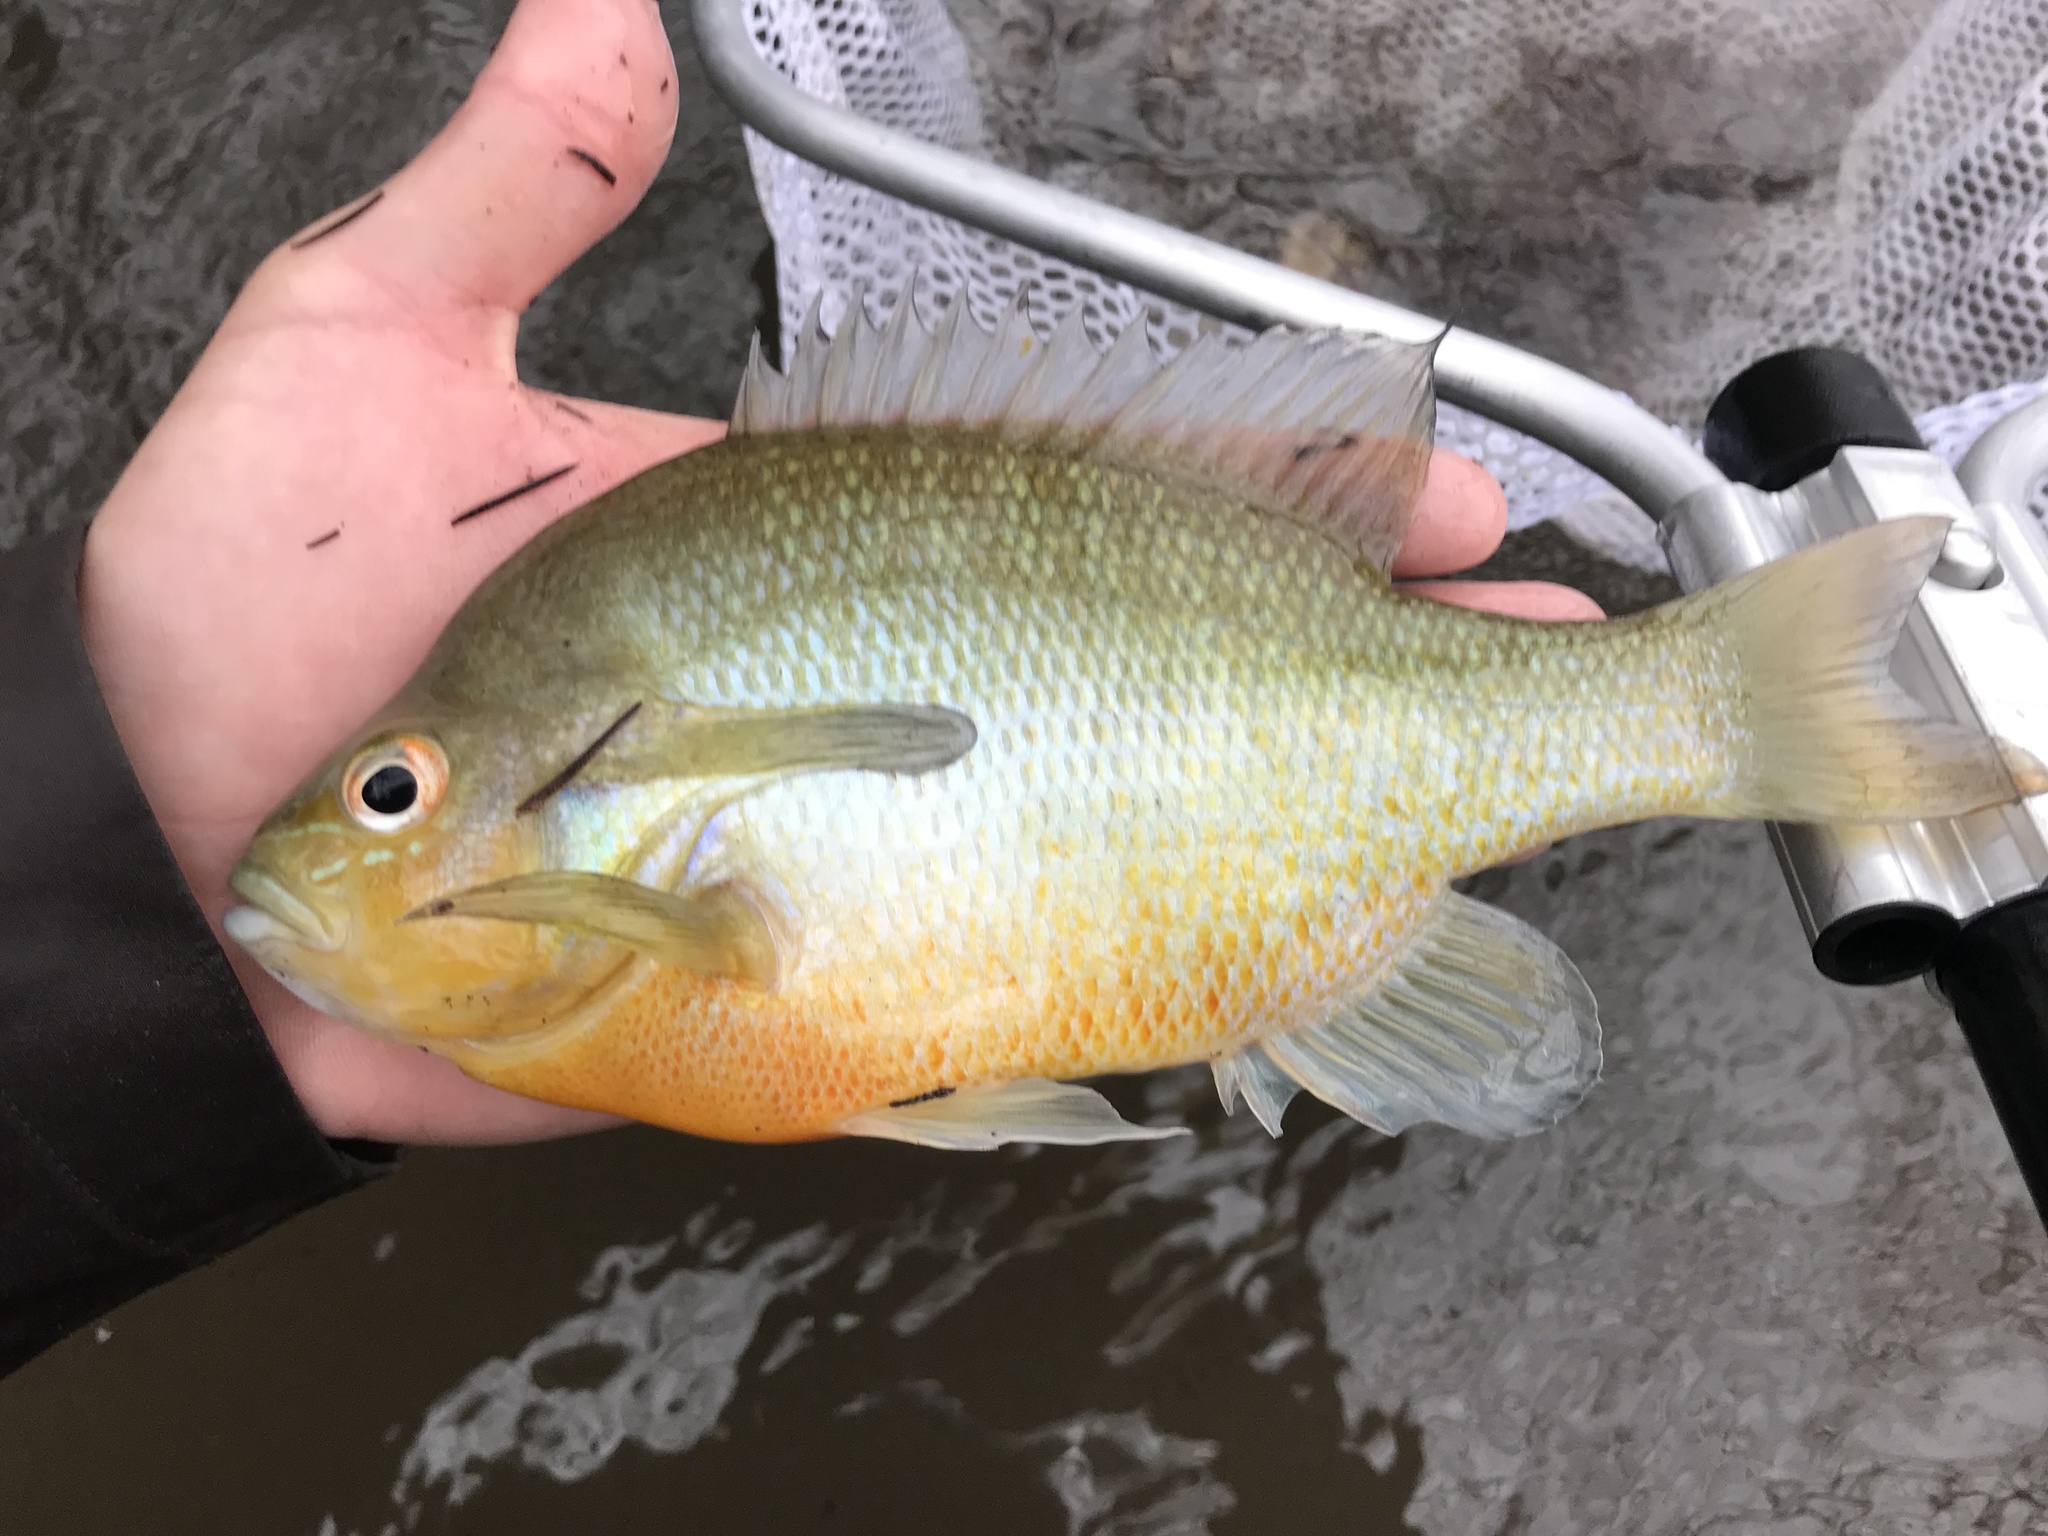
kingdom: Animalia
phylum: Chordata
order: Perciformes
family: Centrarchidae
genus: Lepomis
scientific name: Lepomis auritus
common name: Redbreast sunfish
